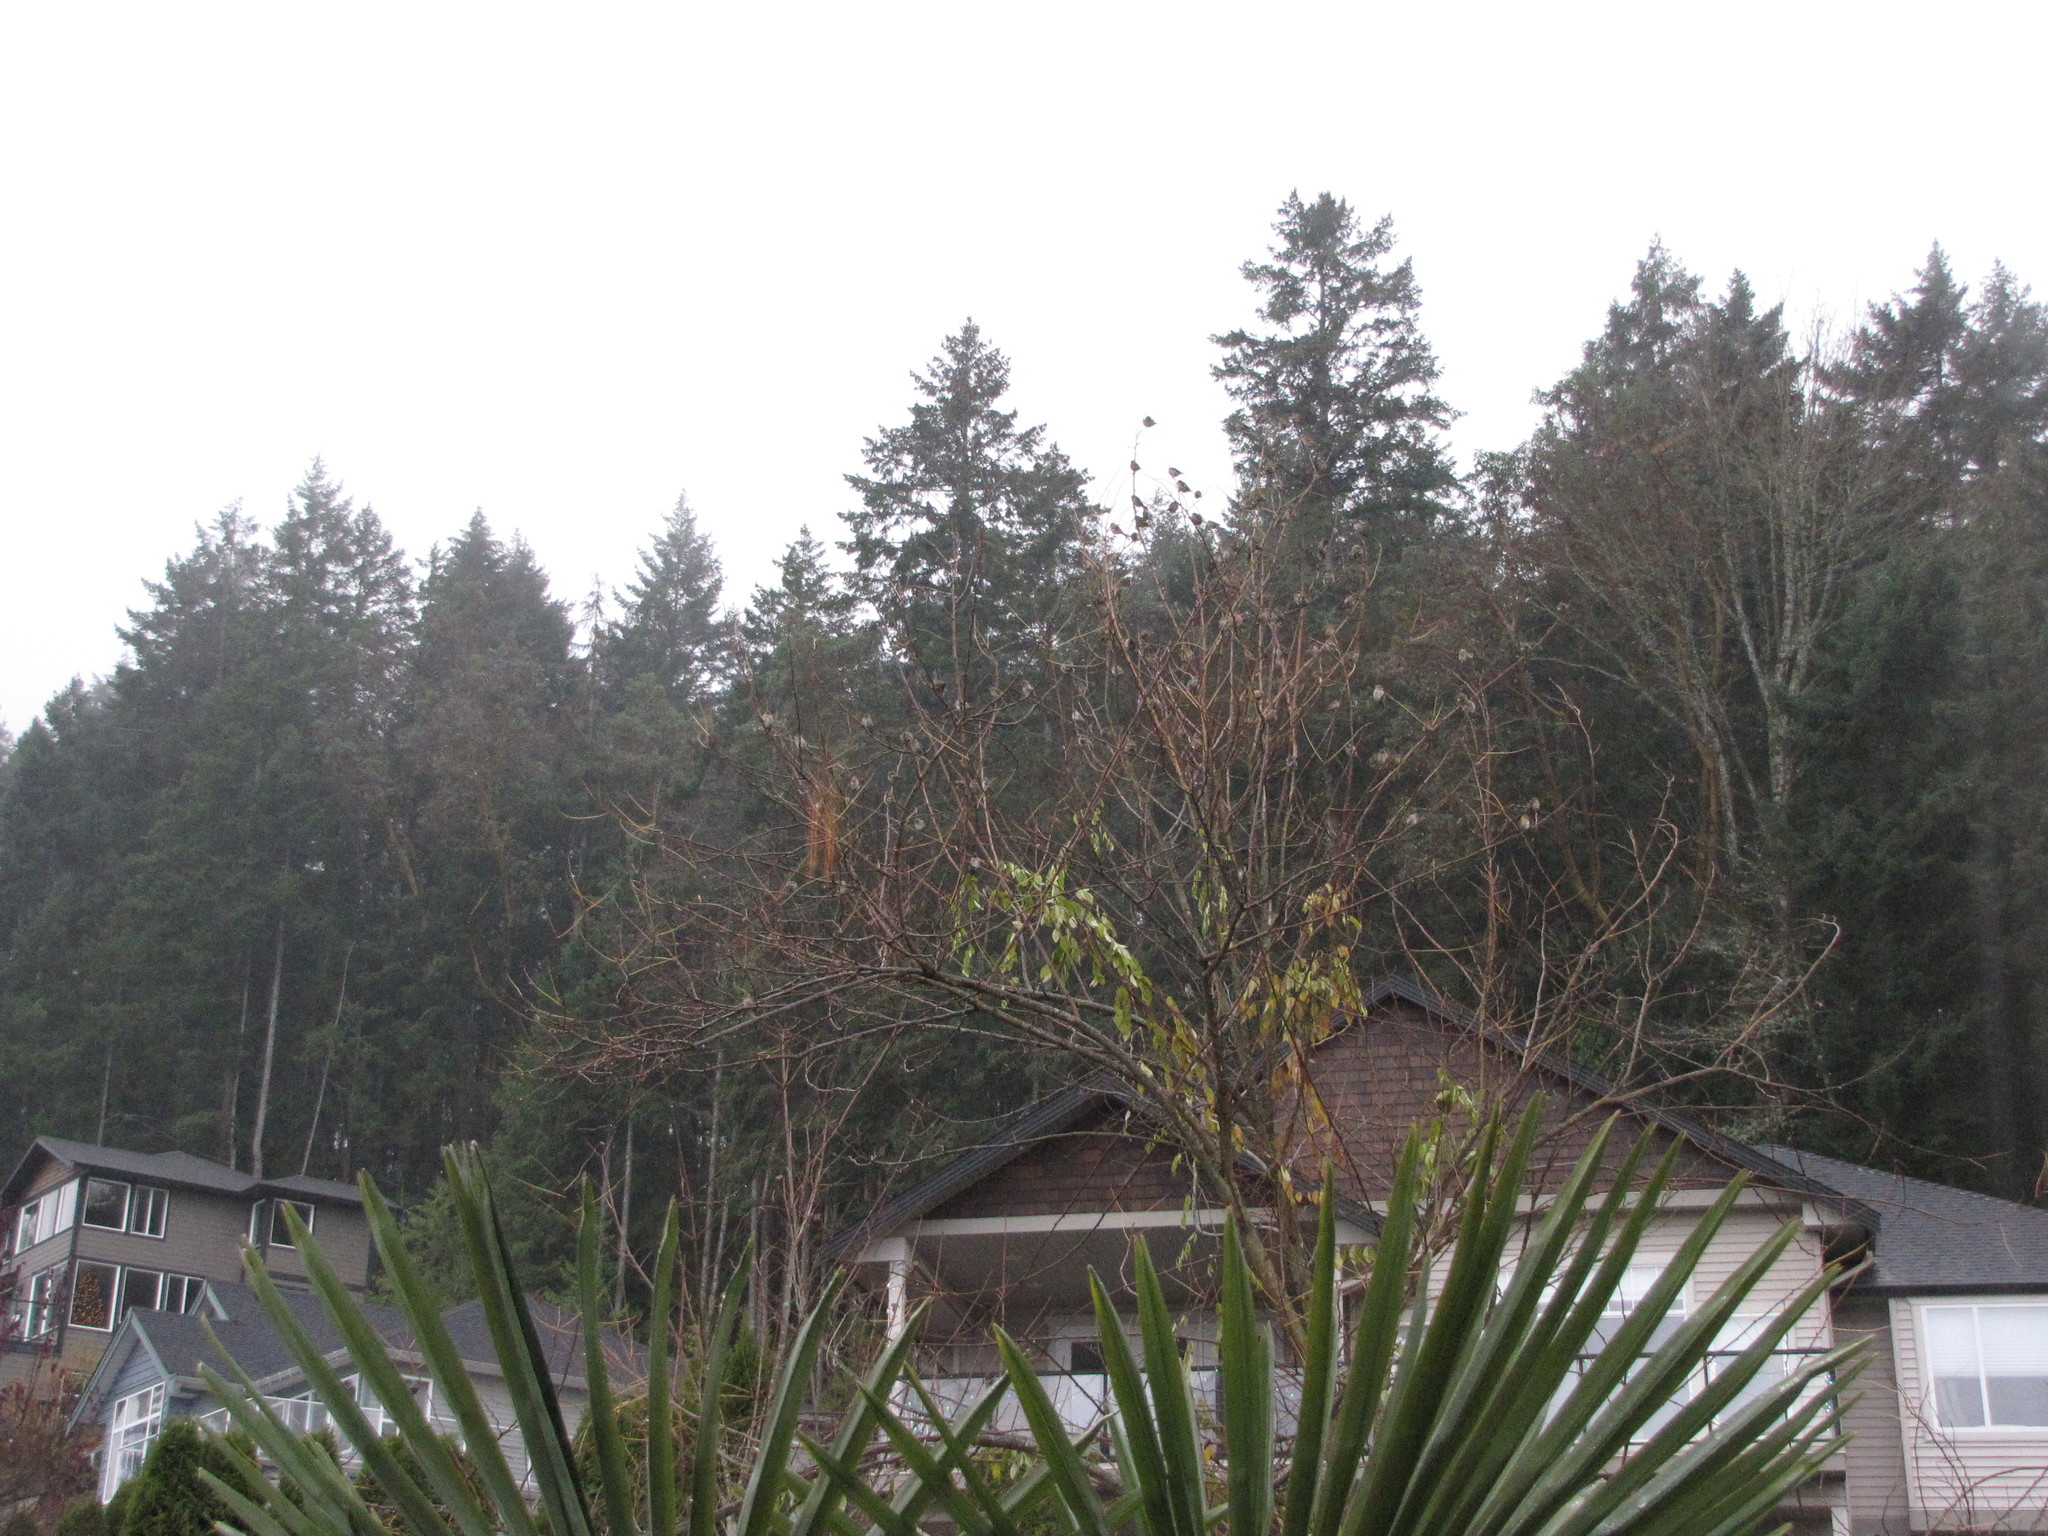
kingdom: Animalia
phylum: Chordata
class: Aves
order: Passeriformes
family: Fringillidae
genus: Spinus
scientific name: Spinus pinus
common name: Pine siskin
